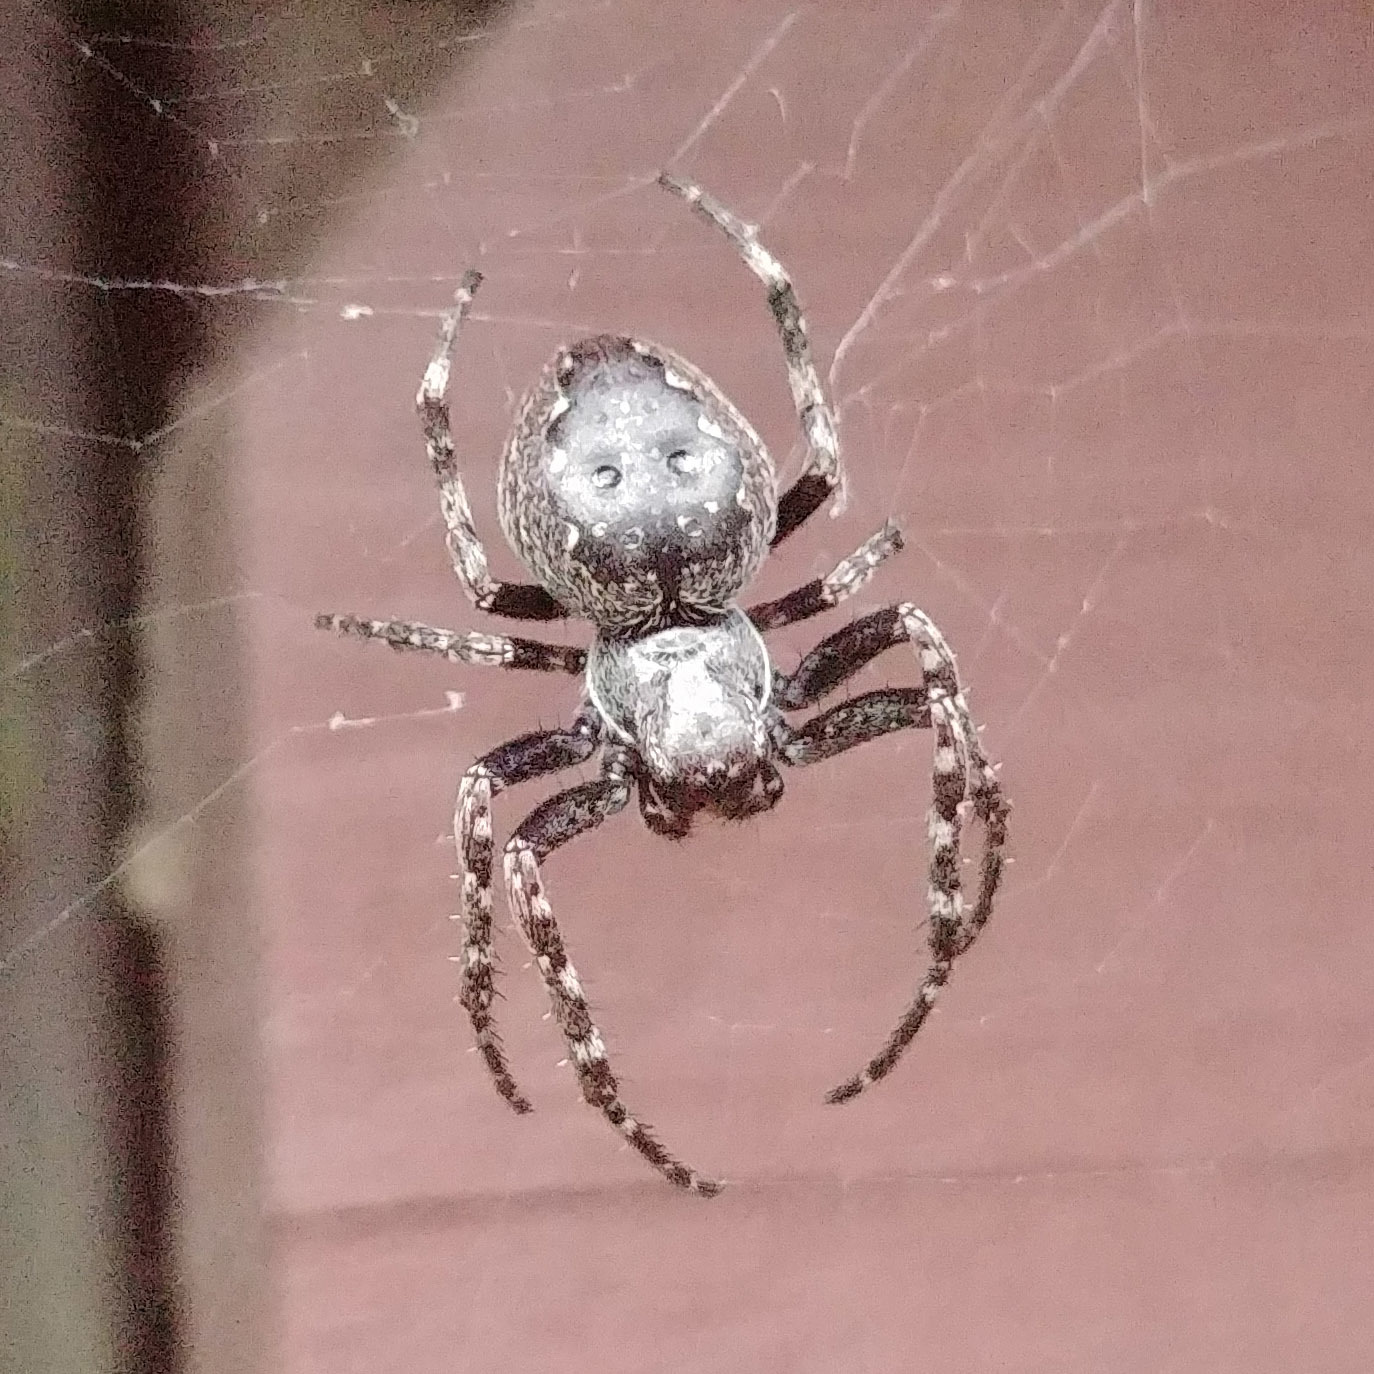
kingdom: Animalia
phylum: Arthropoda
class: Arachnida
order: Araneae
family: Araneidae
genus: Nuctenea
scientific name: Nuctenea umbratica
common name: Toad spider
